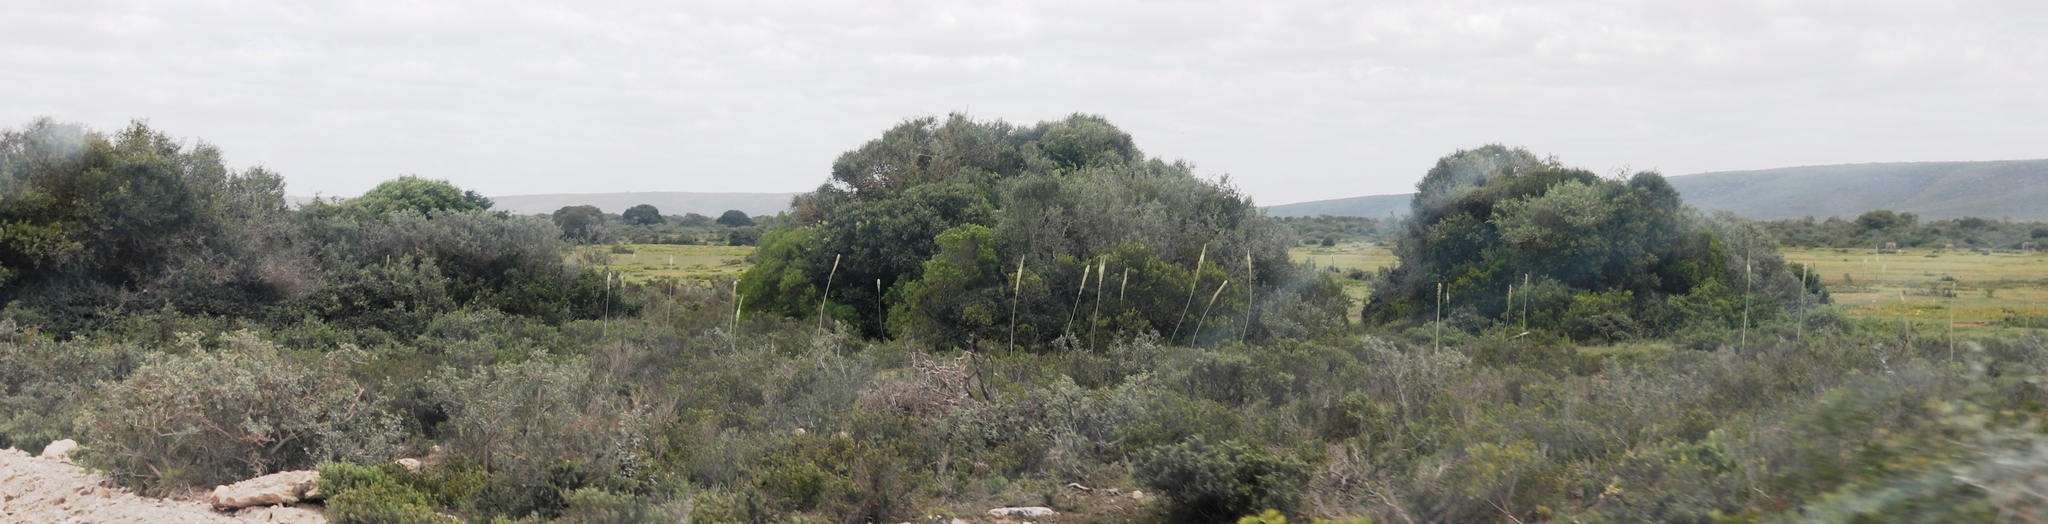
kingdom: Plantae
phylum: Tracheophyta
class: Liliopsida
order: Asparagales
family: Asparagaceae
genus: Drimia
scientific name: Drimia capensis
